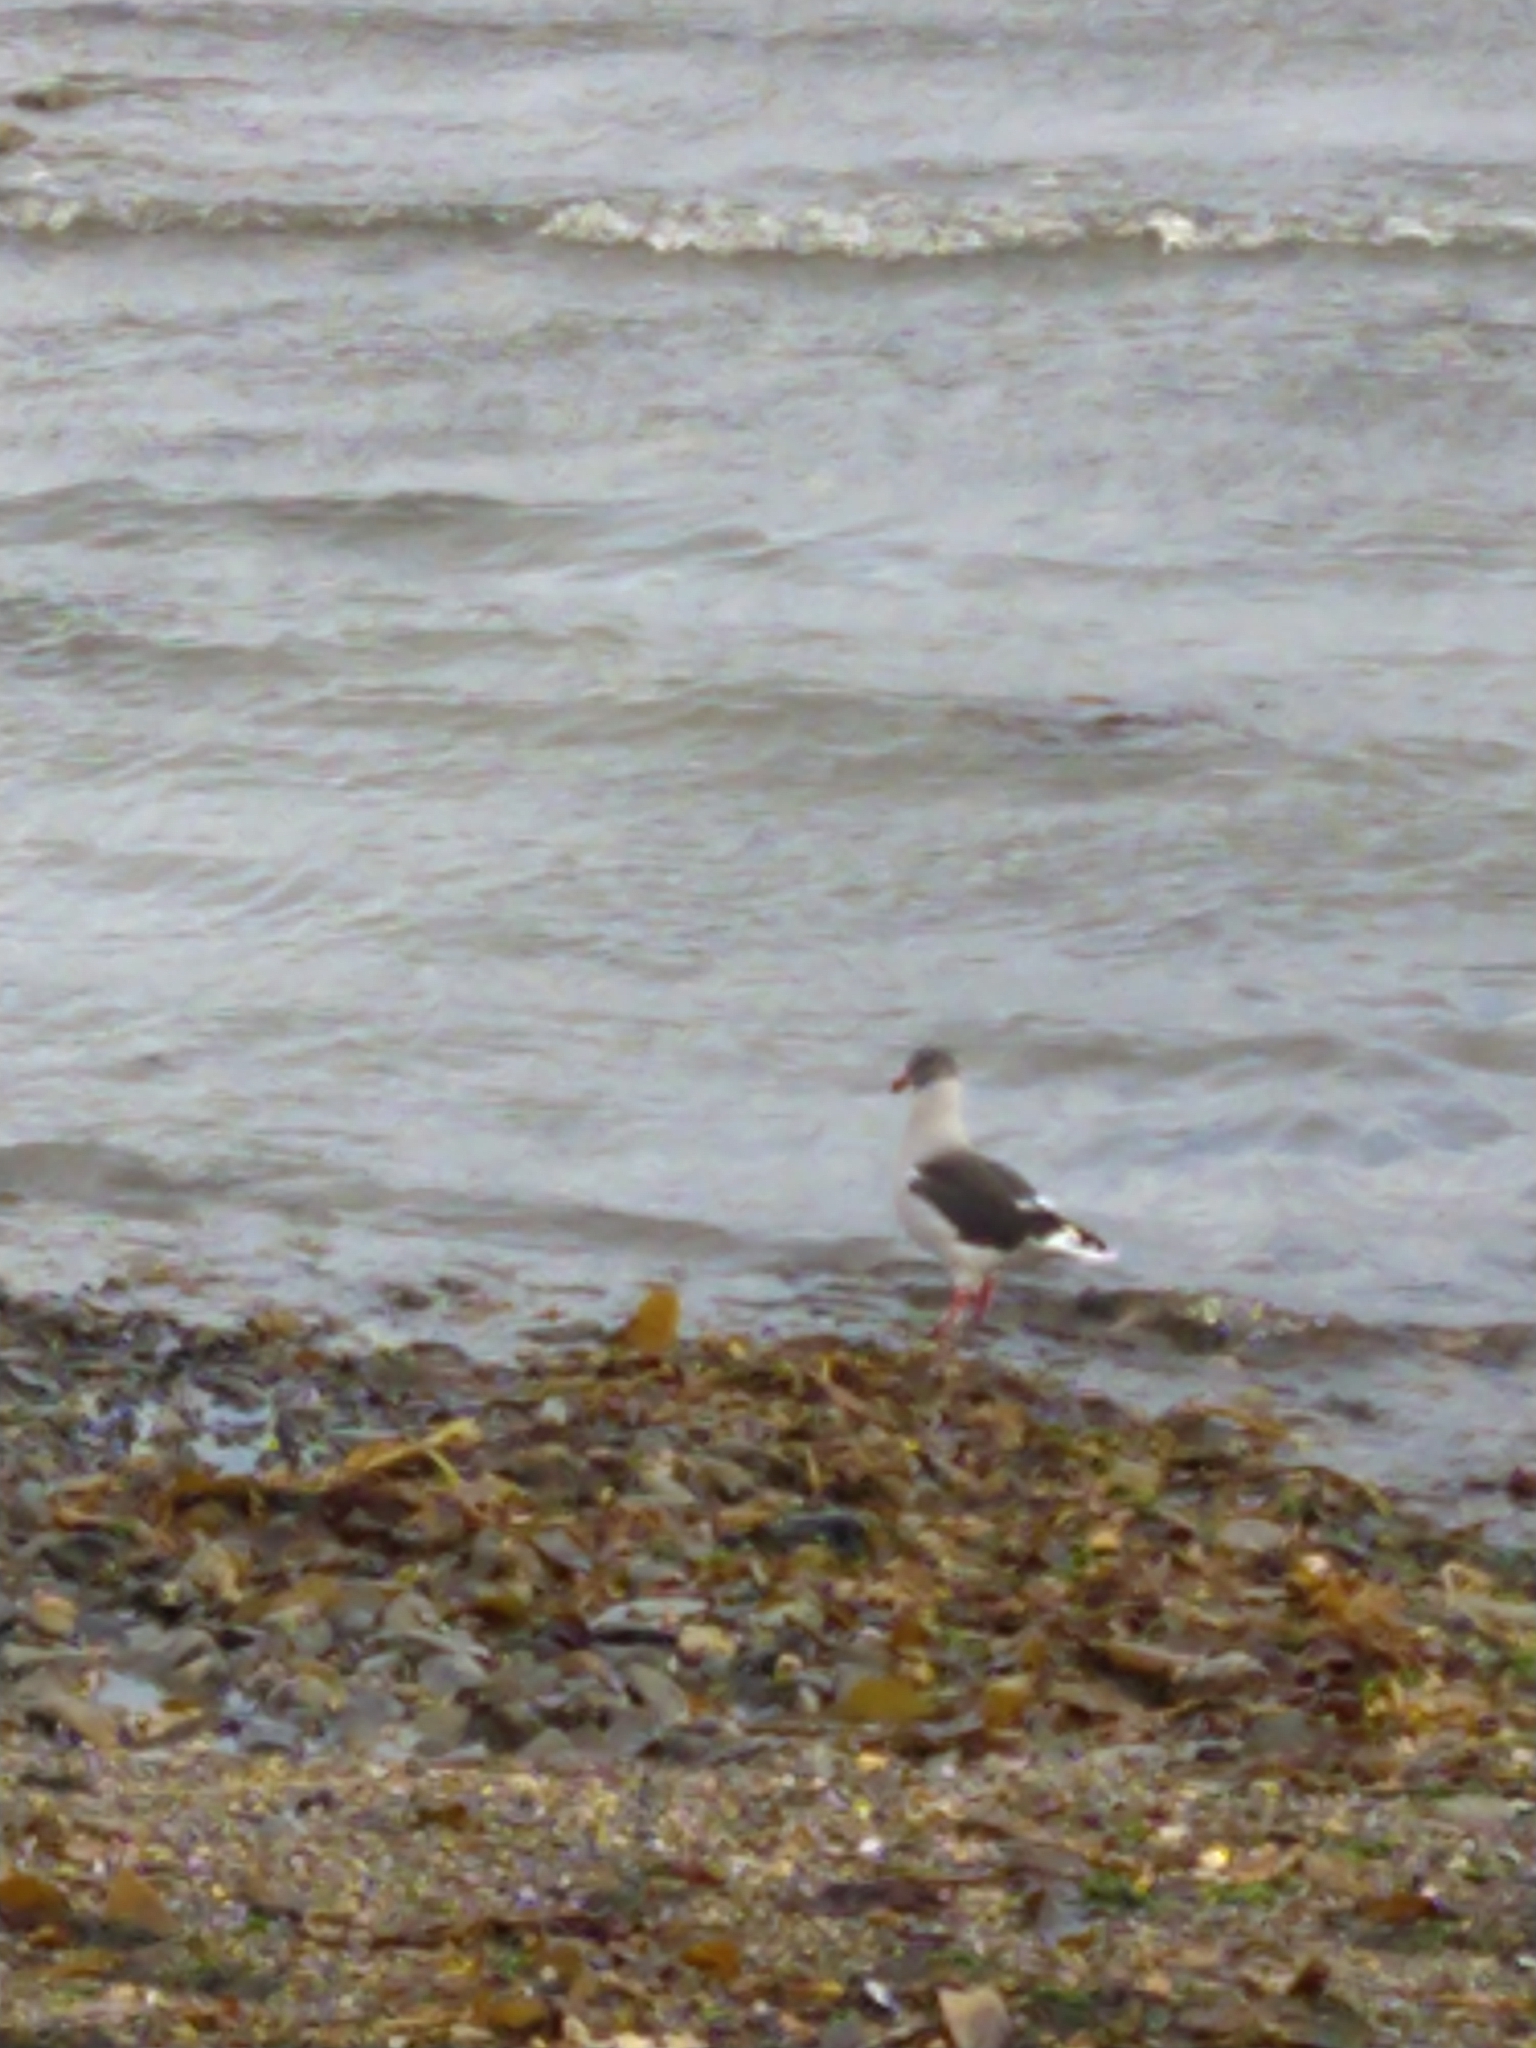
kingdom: Animalia
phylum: Chordata
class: Aves
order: Charadriiformes
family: Laridae
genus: Leucophaeus
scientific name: Leucophaeus scoresbii
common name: Dolphin gull
